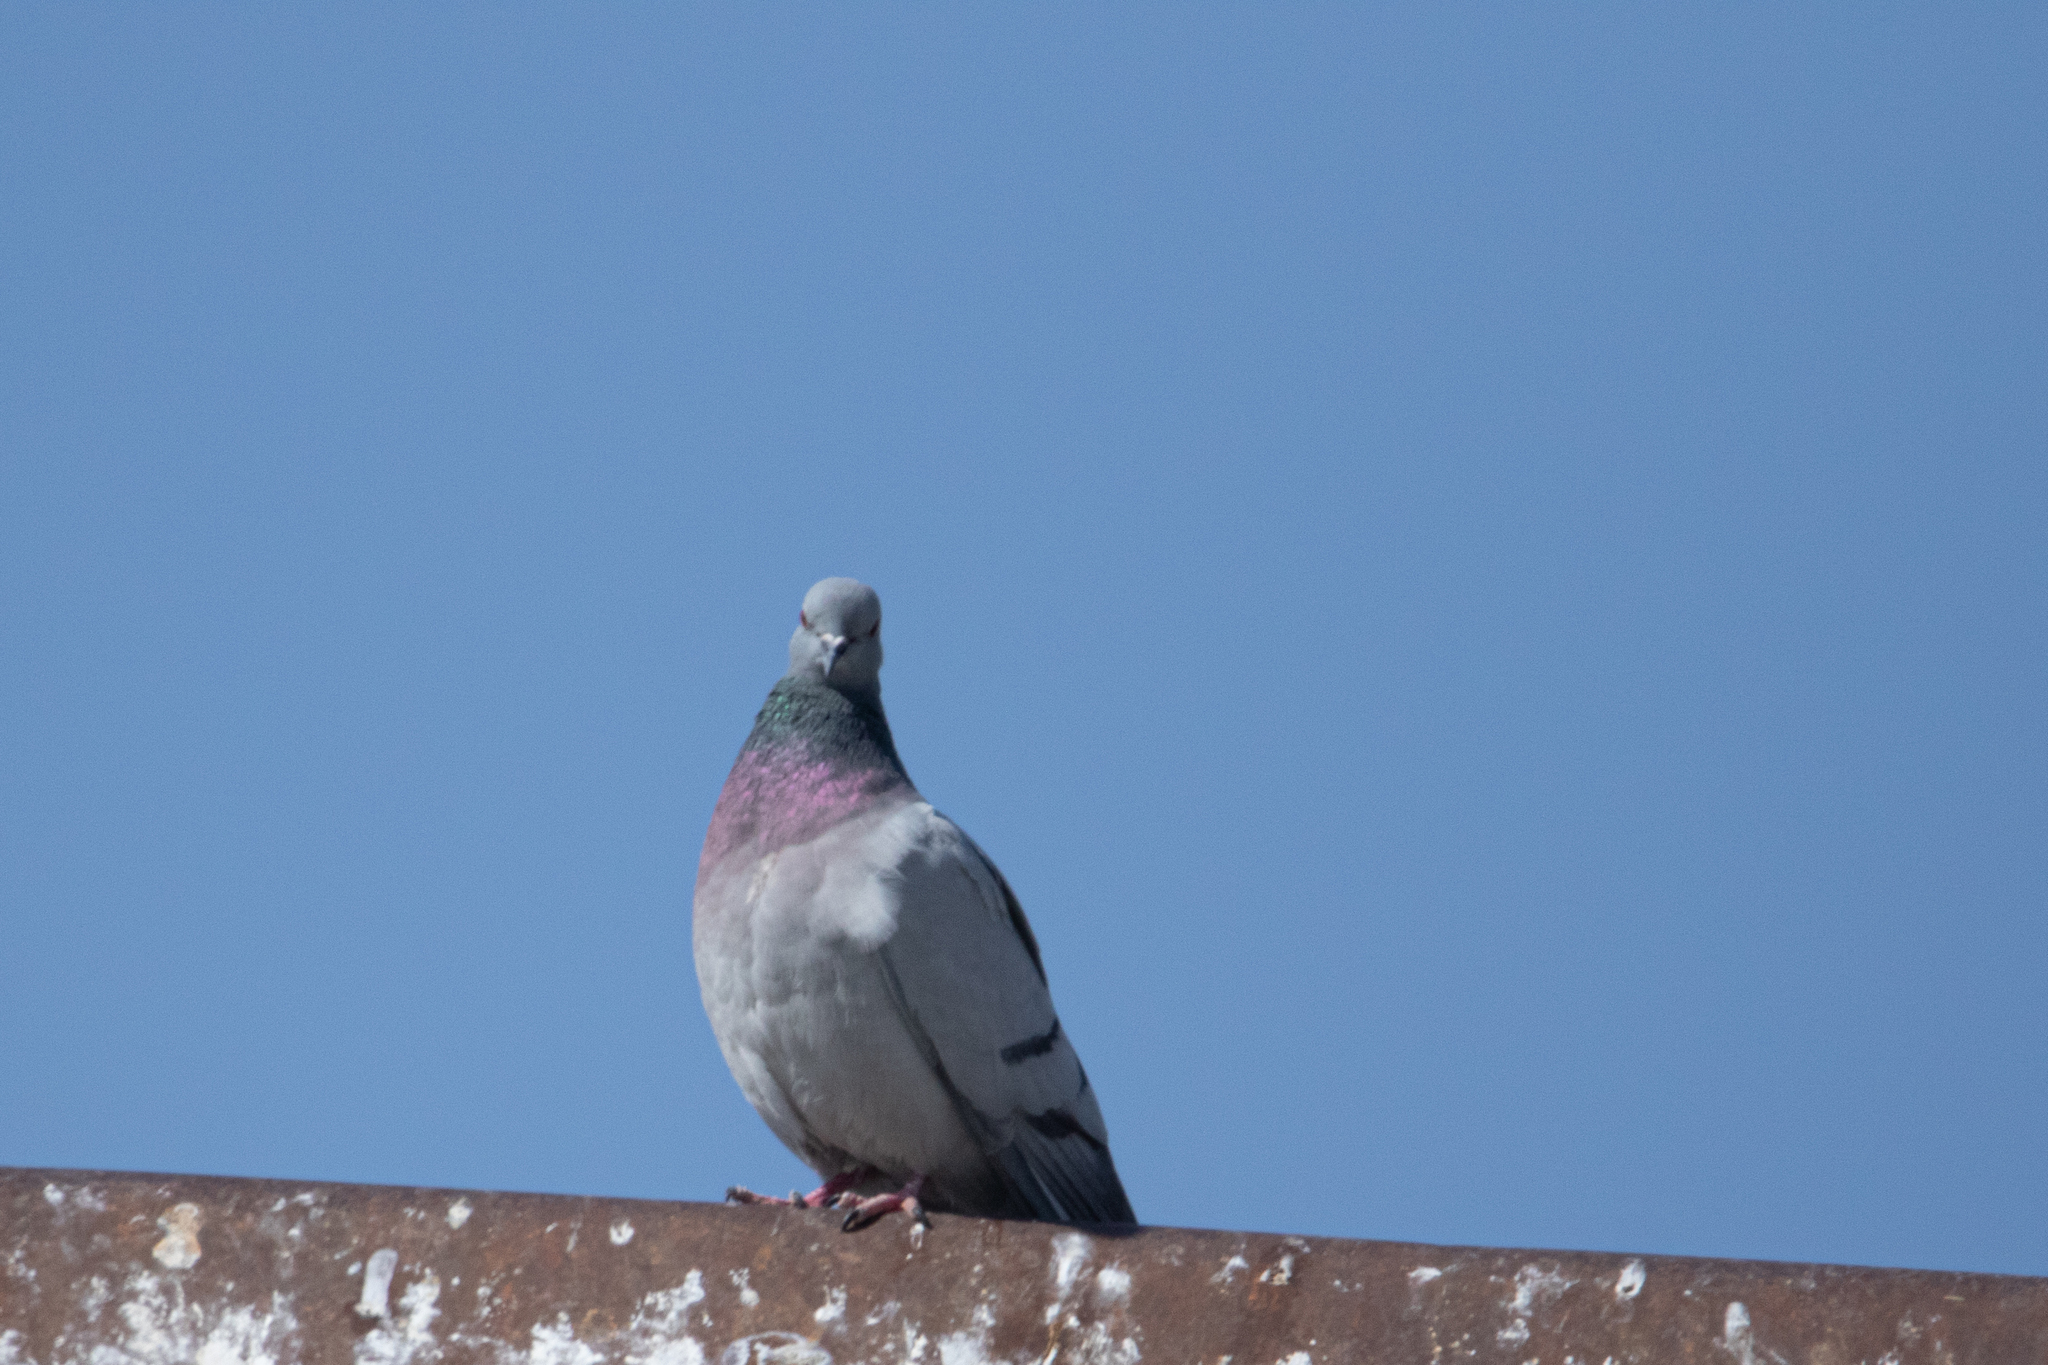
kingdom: Animalia
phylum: Chordata
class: Aves
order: Columbiformes
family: Columbidae
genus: Columba
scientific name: Columba rupestris
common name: Hill pigeon
